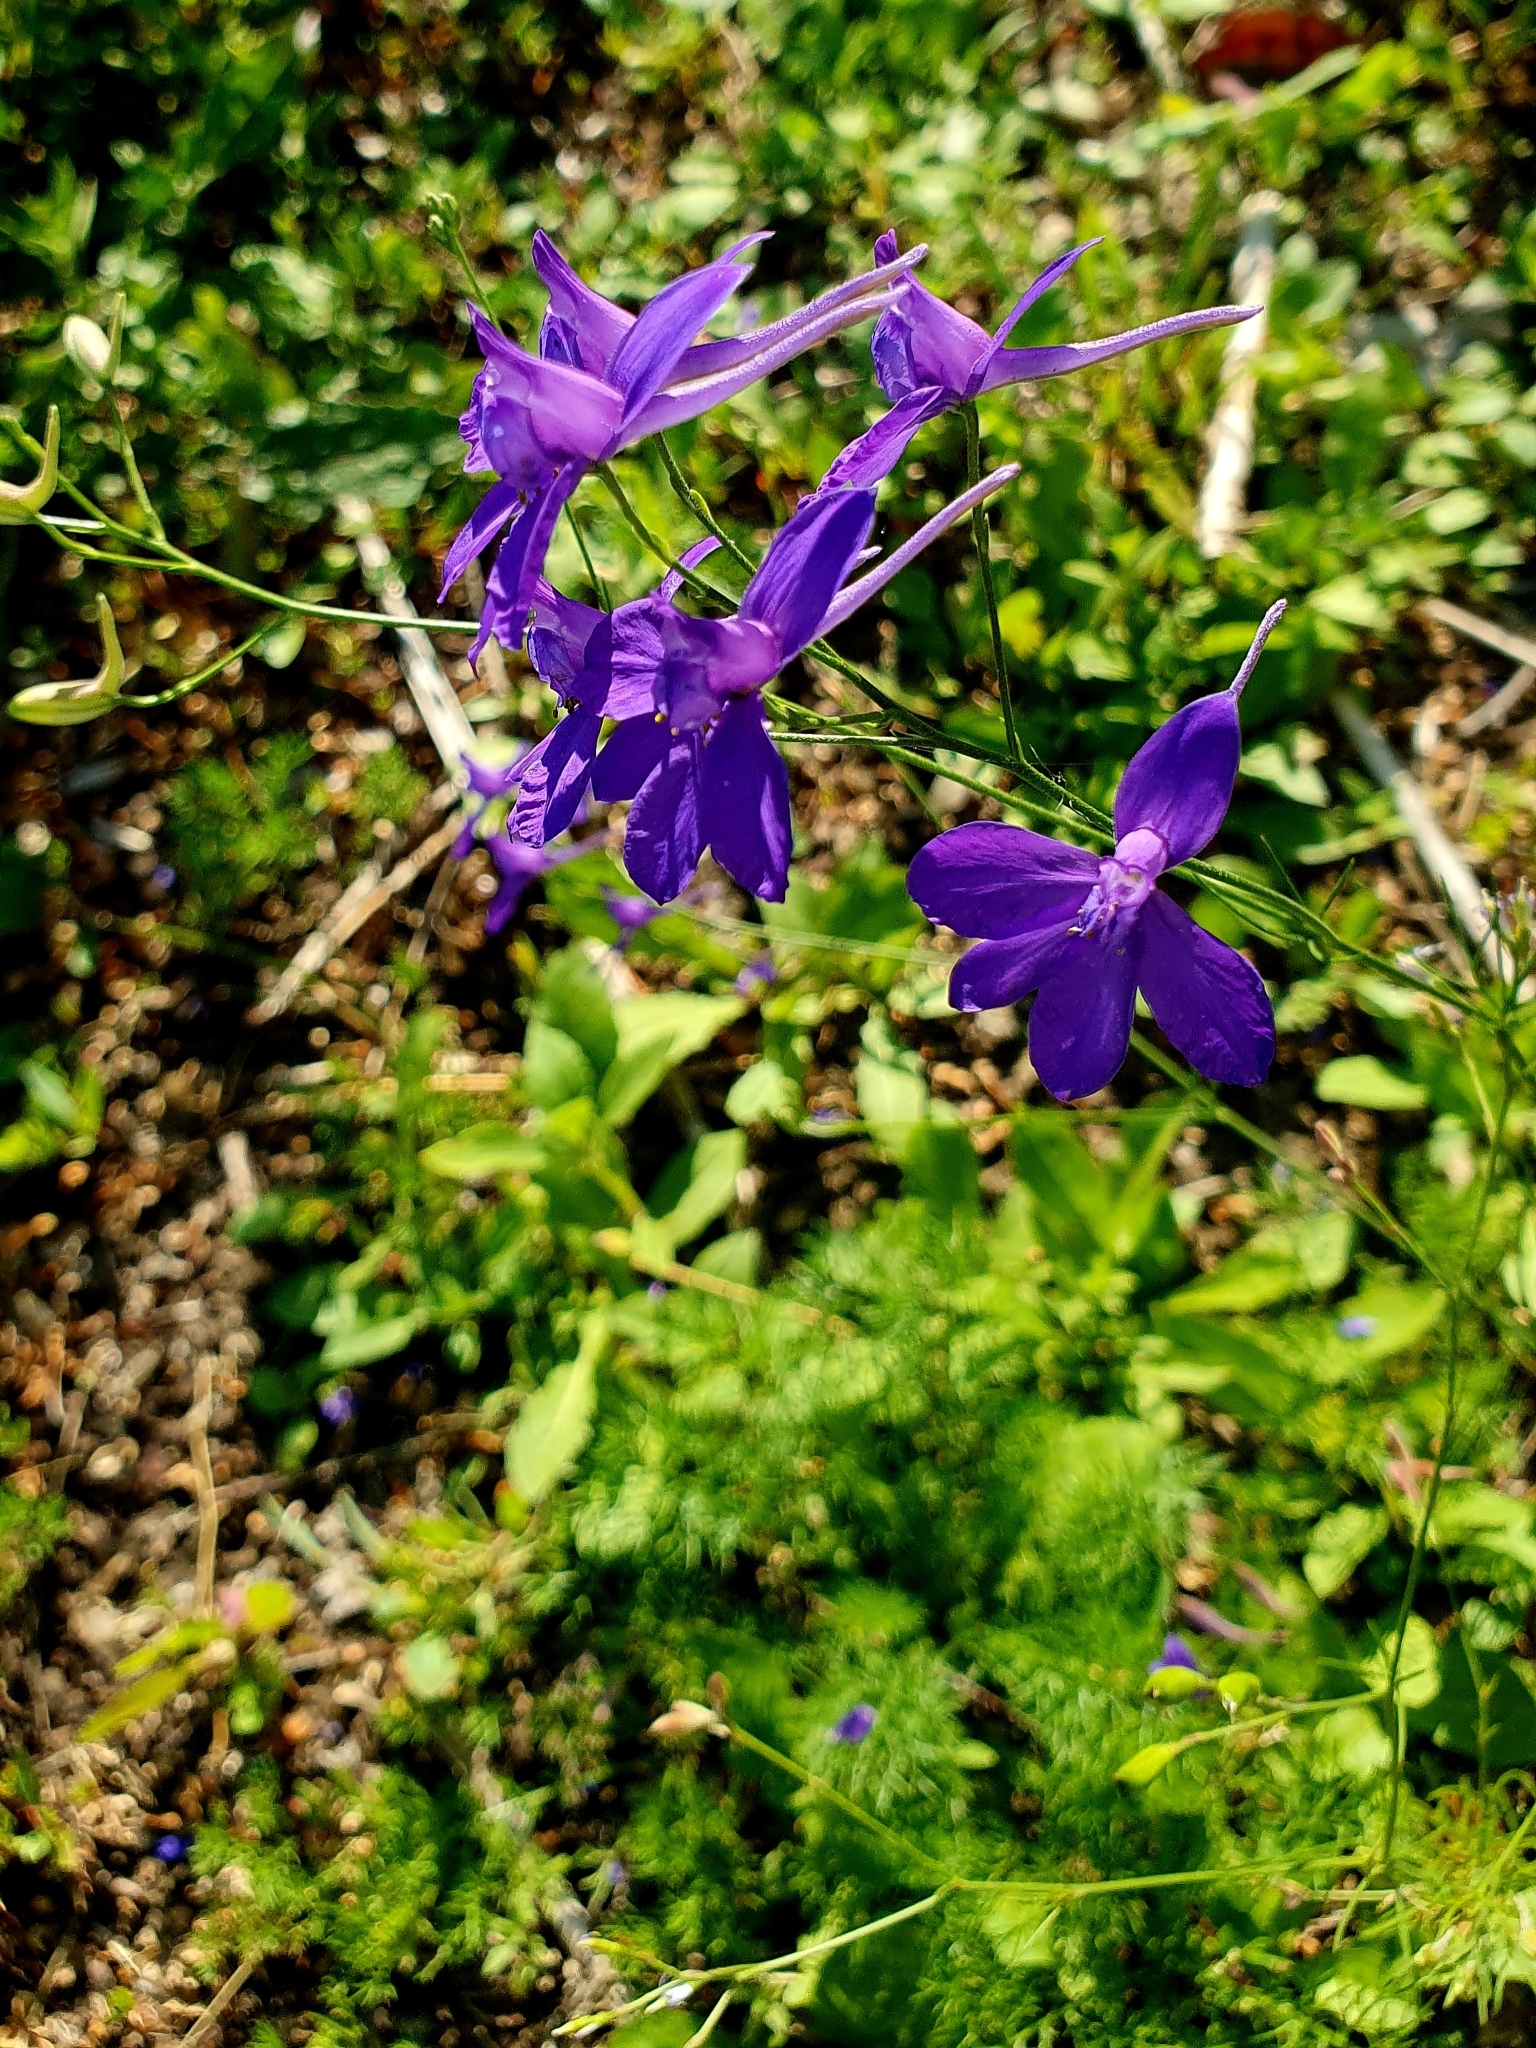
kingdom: Plantae
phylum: Tracheophyta
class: Magnoliopsida
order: Ranunculales
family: Ranunculaceae
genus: Delphinium
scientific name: Delphinium consolida
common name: Branching larkspur
